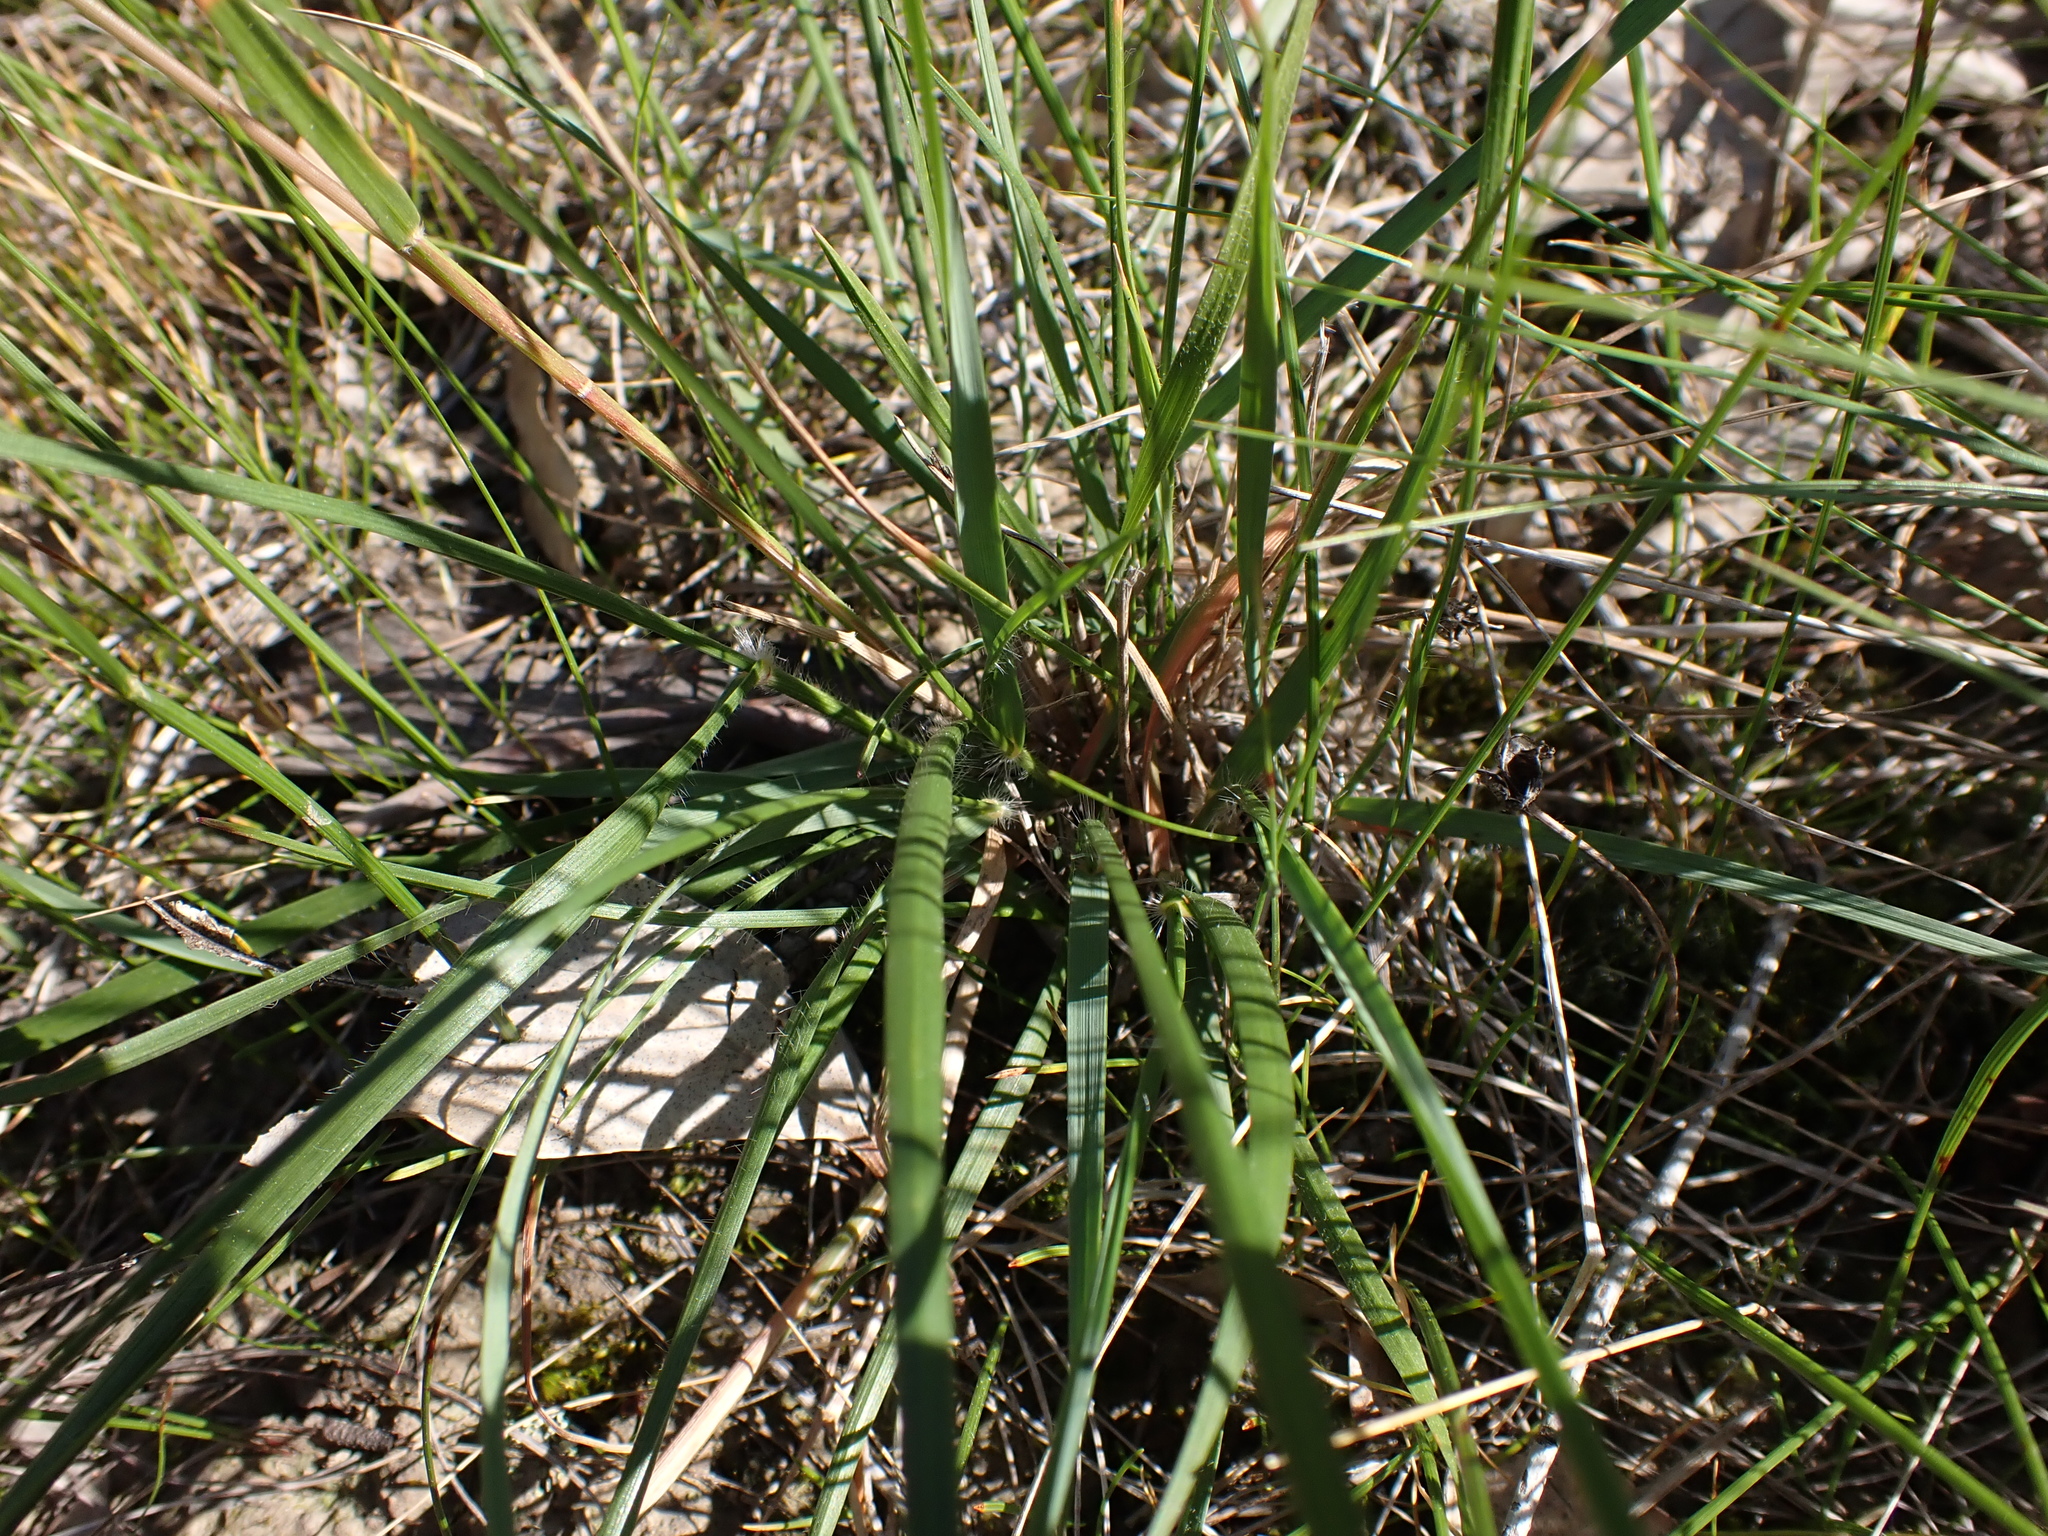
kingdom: Plantae
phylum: Tracheophyta
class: Liliopsida
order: Poales
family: Poaceae
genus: Rytidosperma
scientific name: Rytidosperma fulvum
